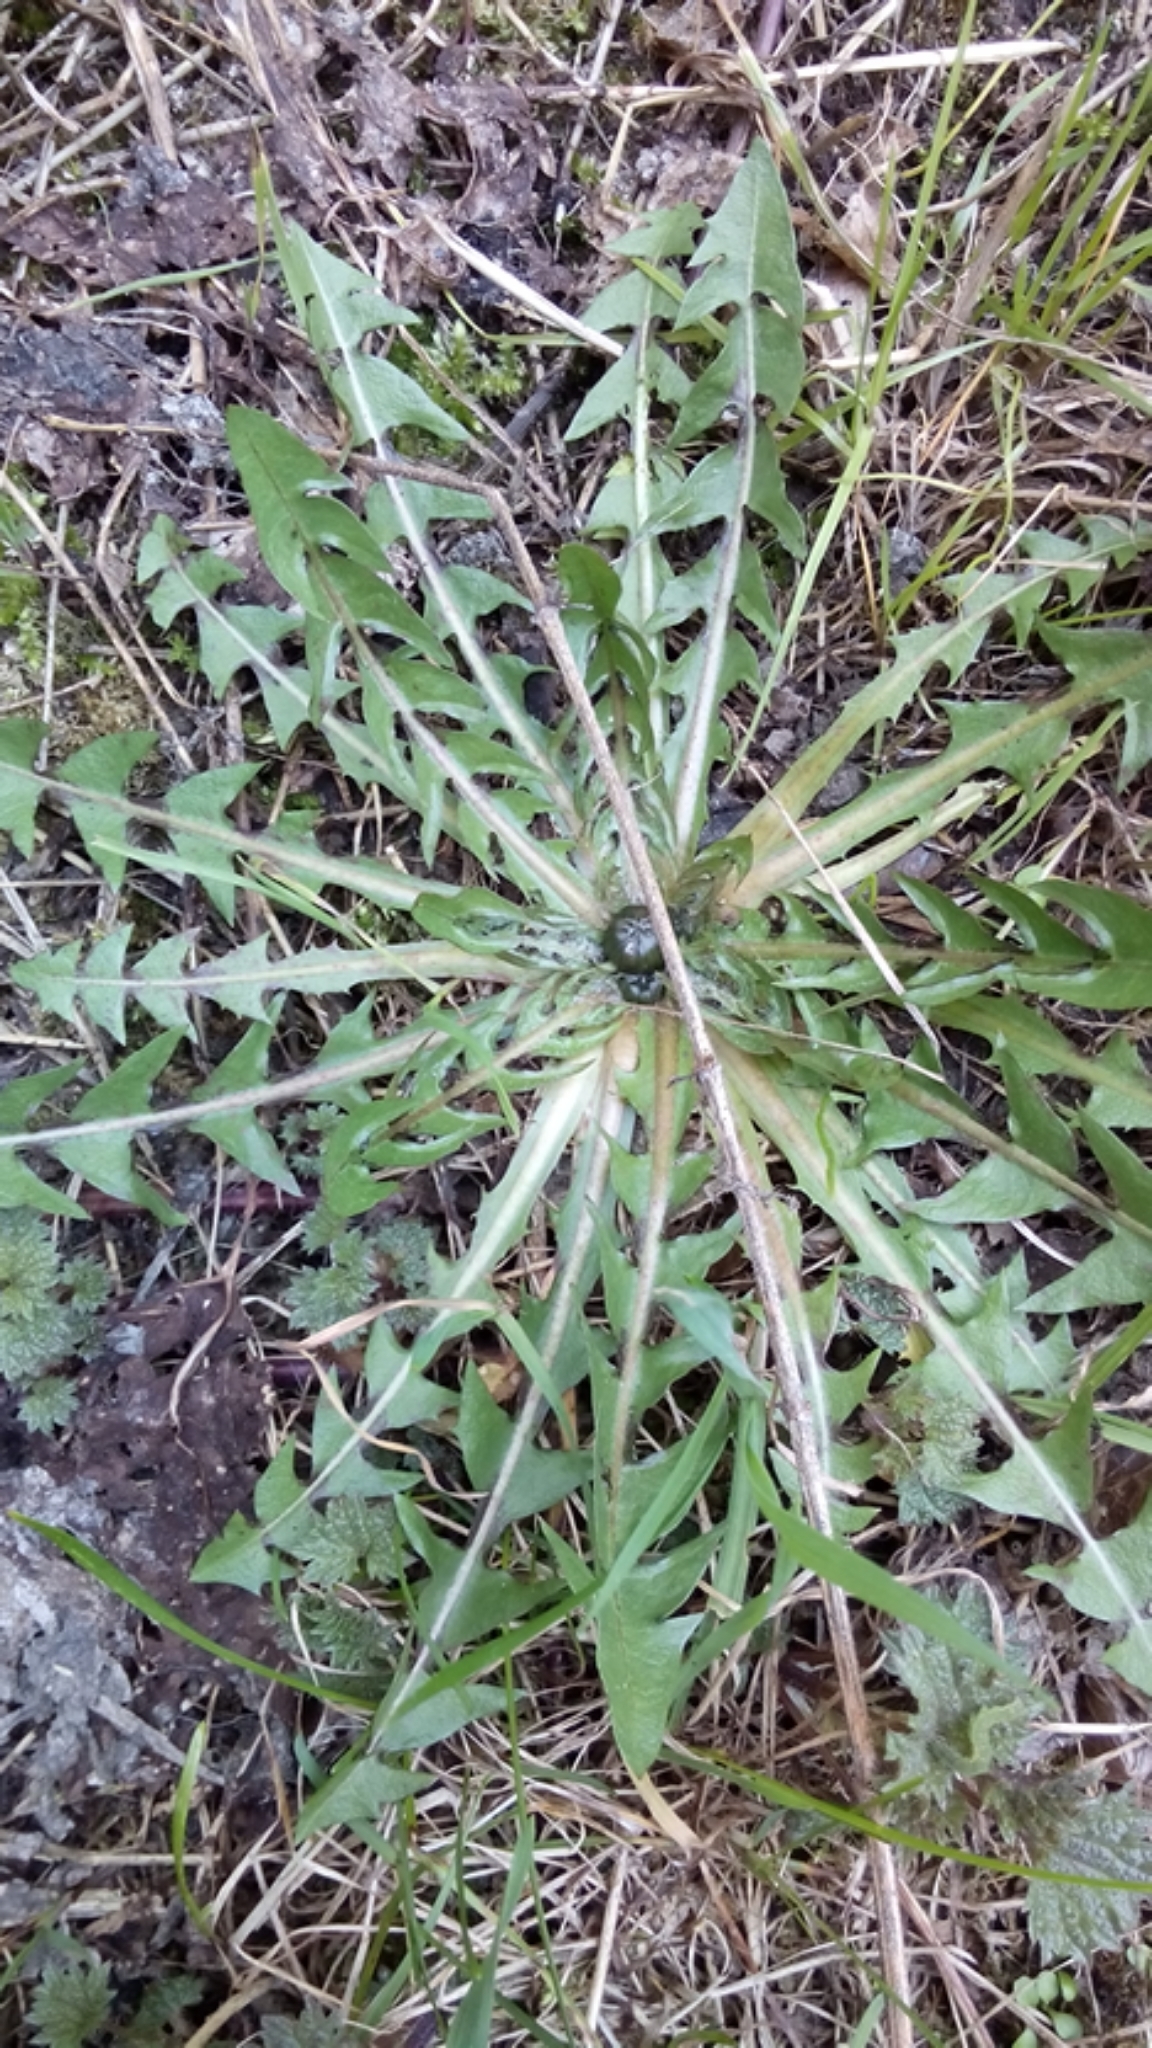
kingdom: Plantae
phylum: Tracheophyta
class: Magnoliopsida
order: Asterales
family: Asteraceae
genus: Taraxacum
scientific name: Taraxacum officinale
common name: Common dandelion
